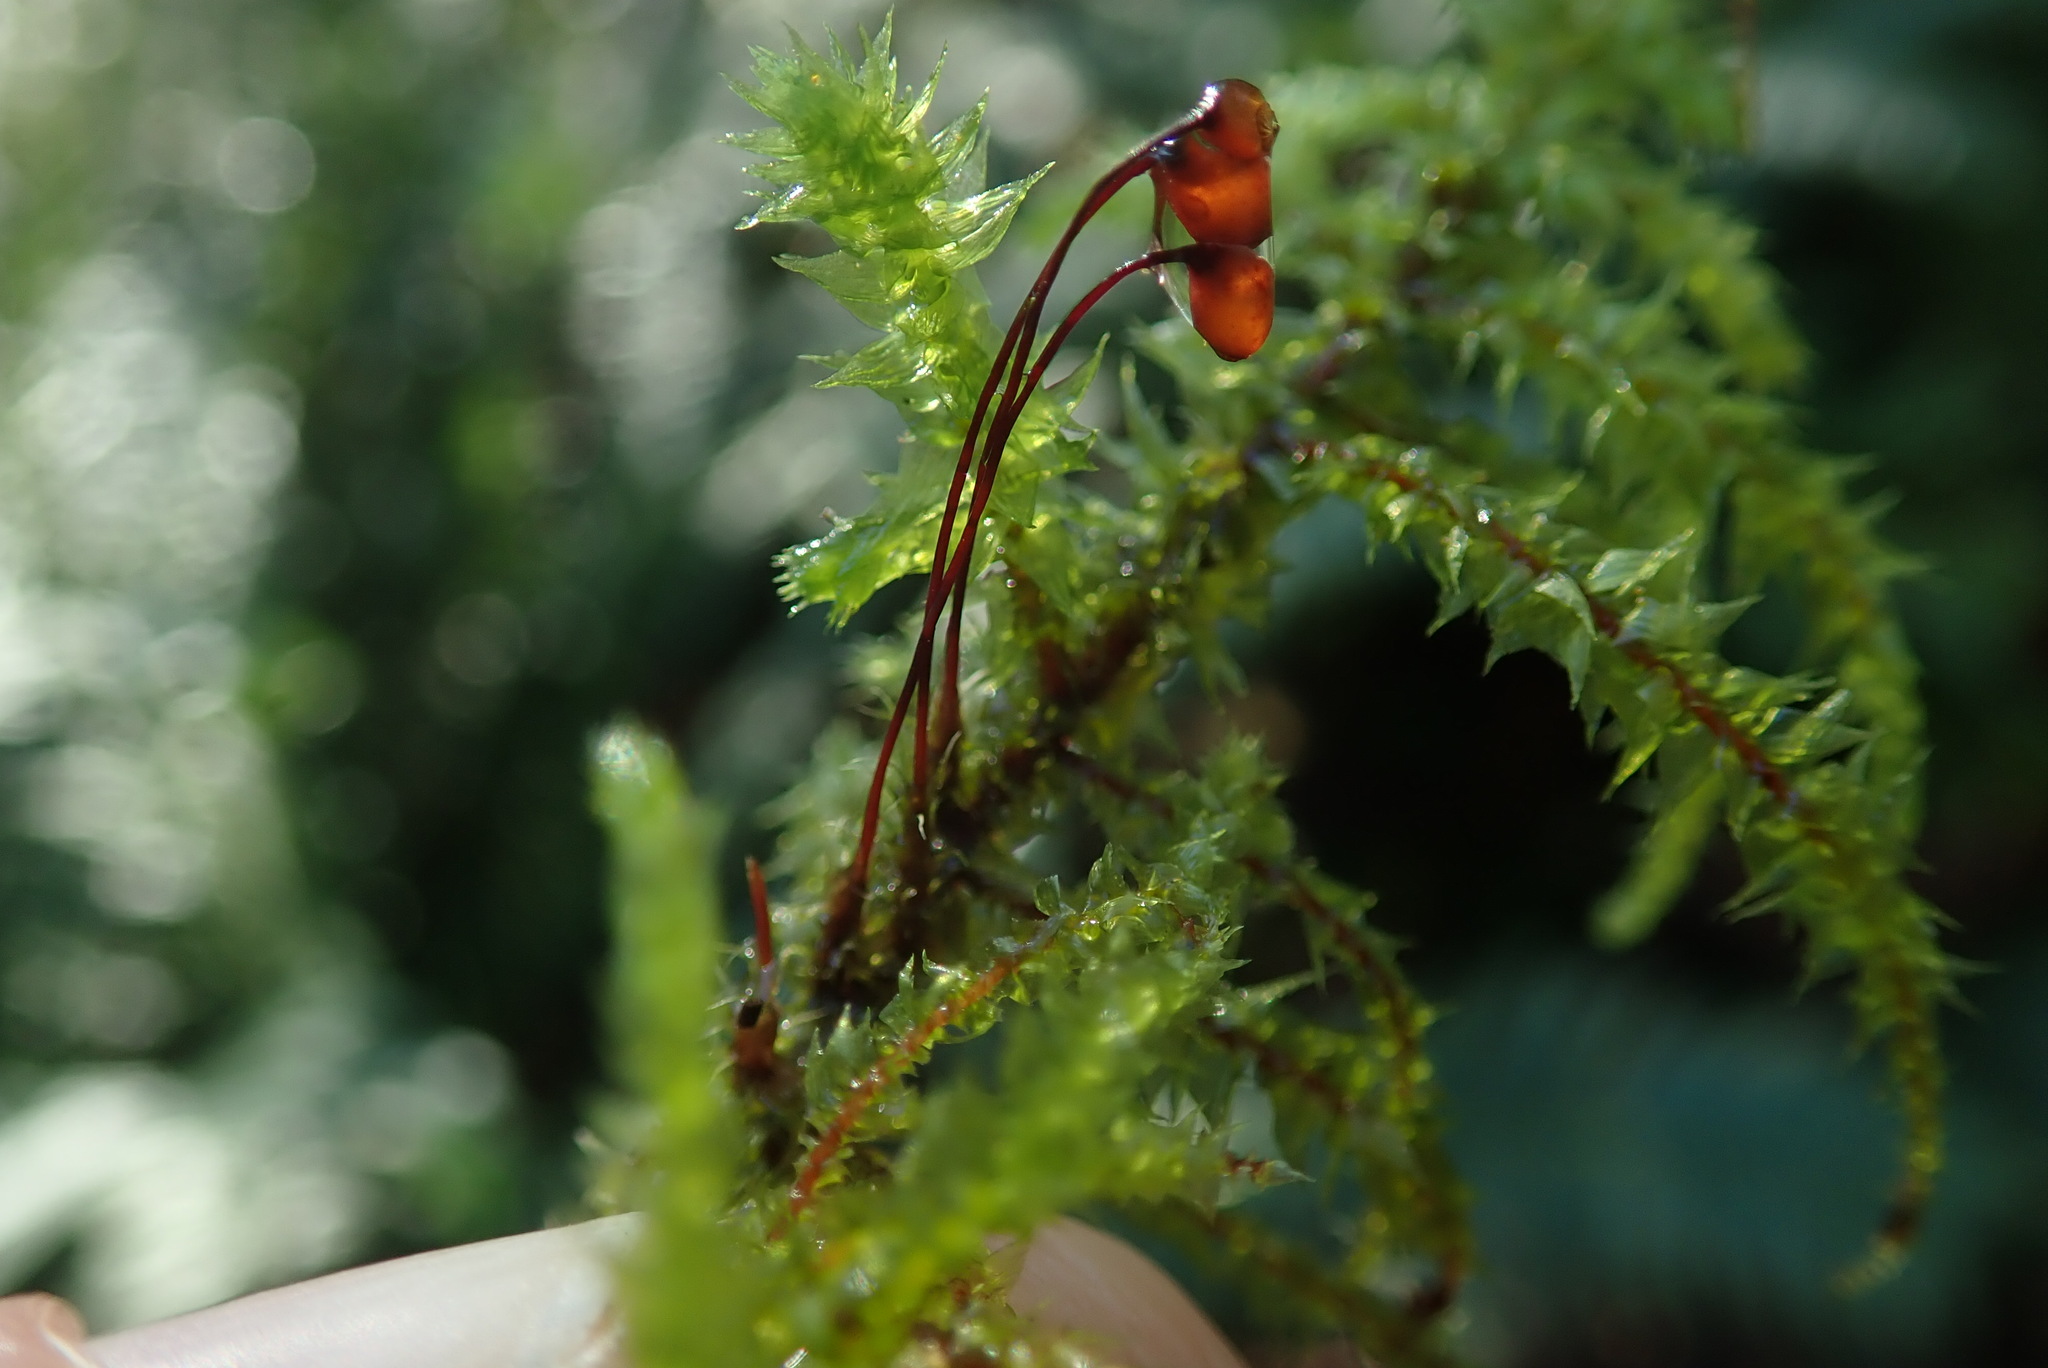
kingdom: Plantae
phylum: Bryophyta
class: Bryopsida
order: Hypnales
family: Hylocomiaceae
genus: Hylocomiadelphus
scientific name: Hylocomiadelphus triquetrus
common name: Rough goose neck moss
